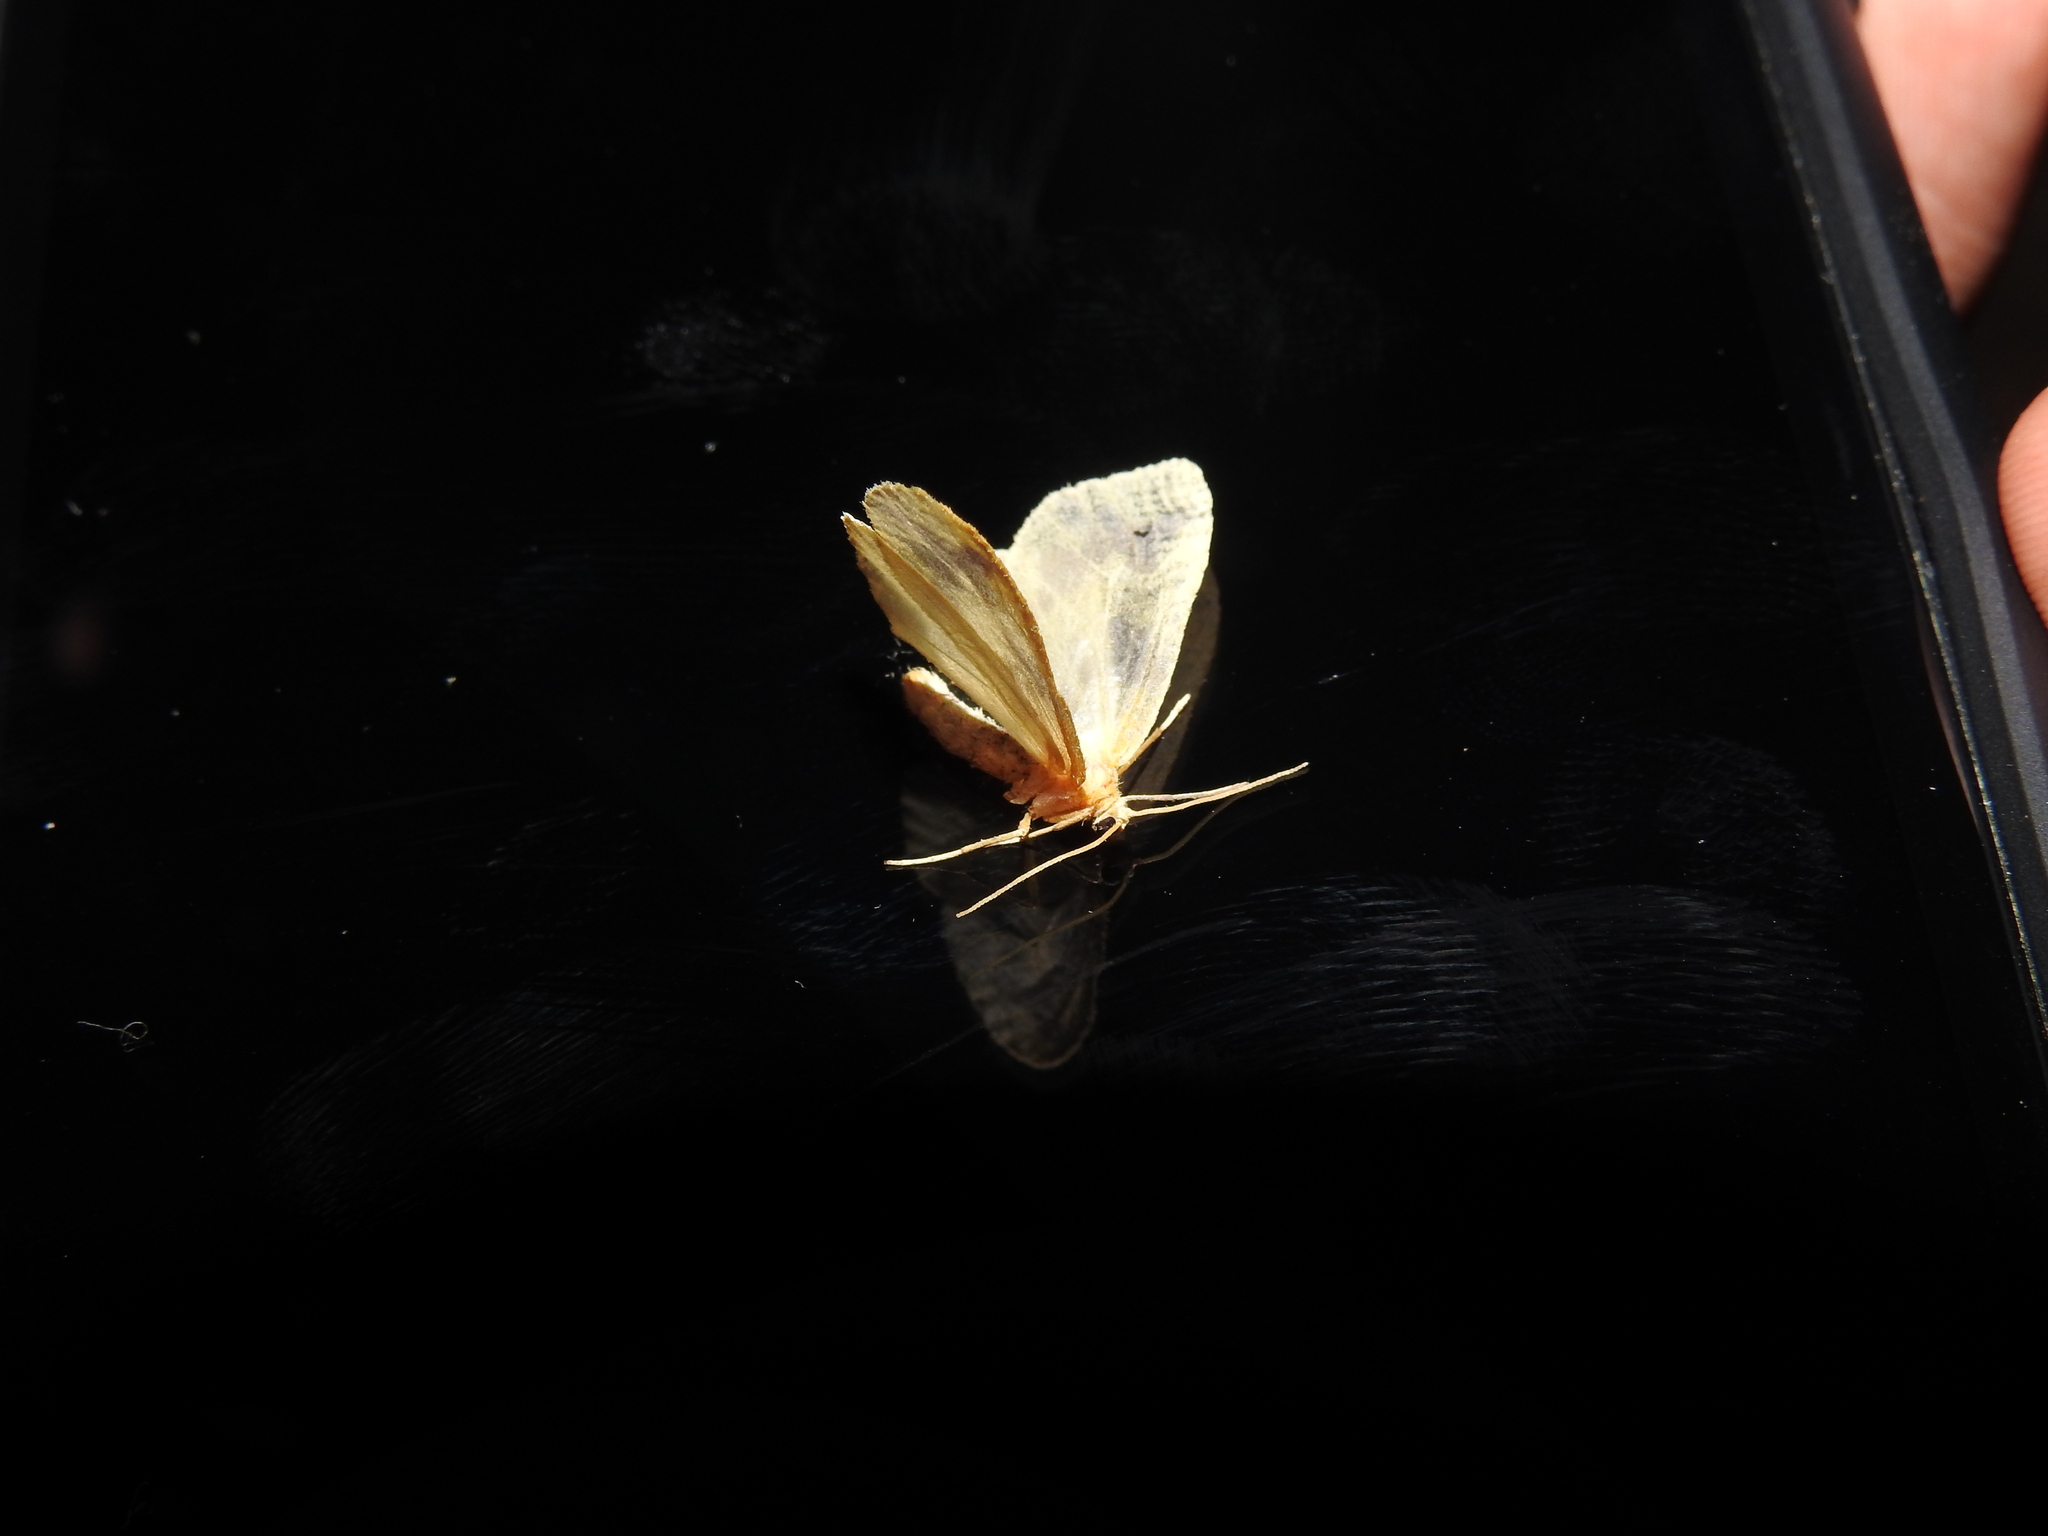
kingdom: Animalia
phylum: Arthropoda
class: Insecta
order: Lepidoptera
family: Geometridae
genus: Eubaphe
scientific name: Eubaphe mendica
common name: Beggar
